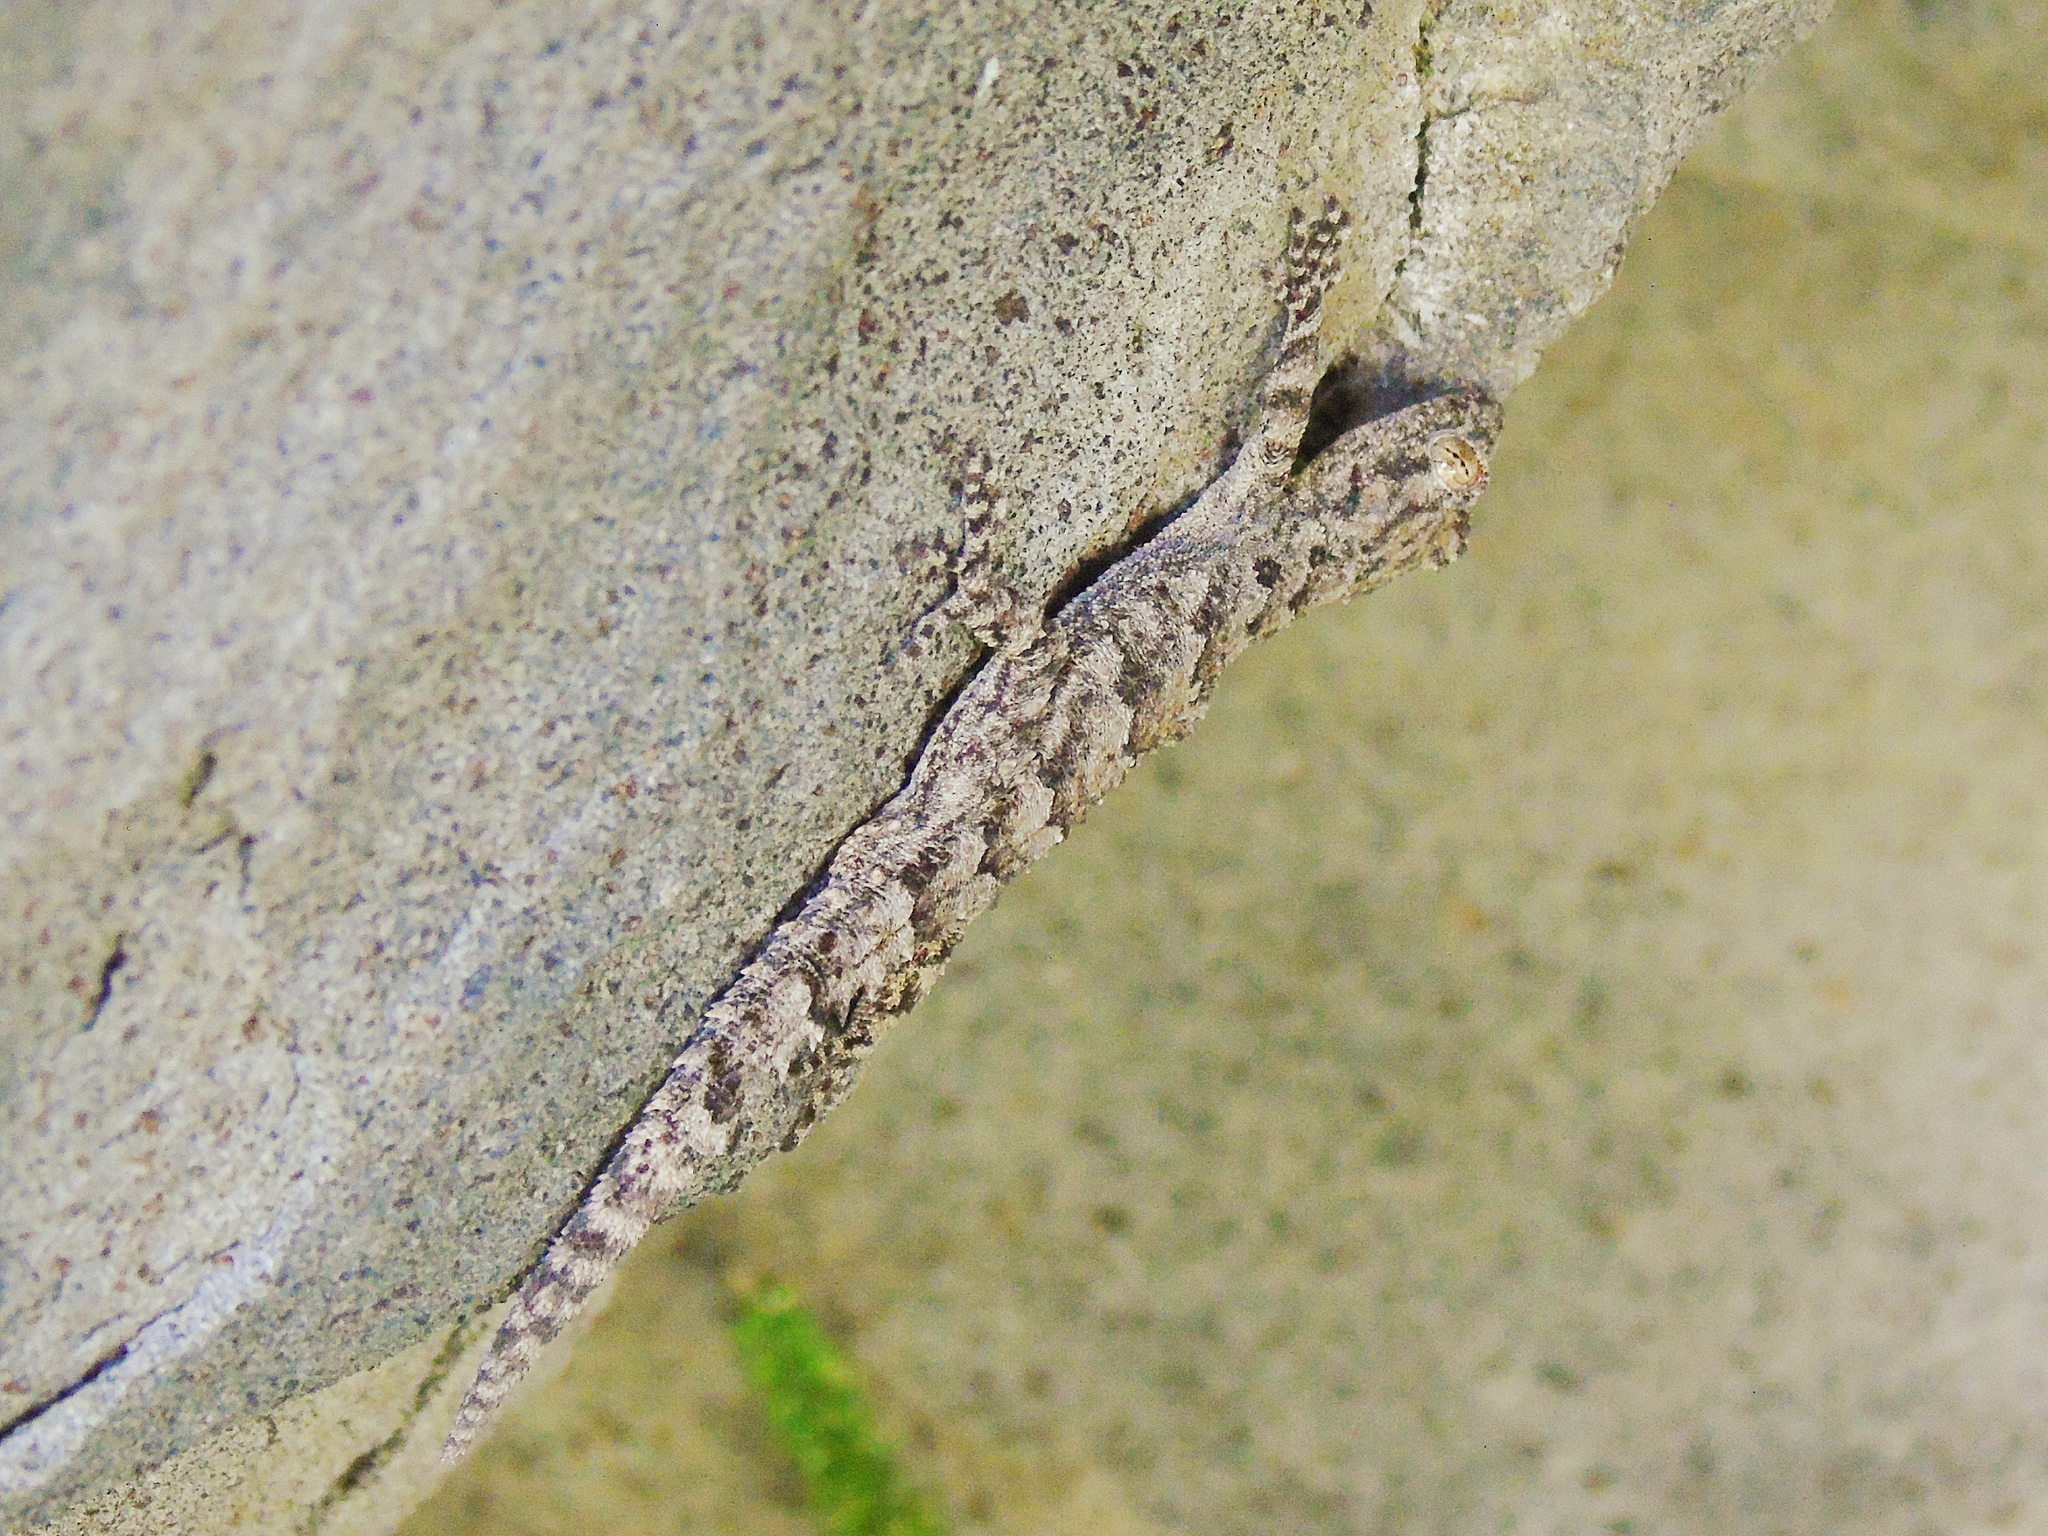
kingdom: Animalia
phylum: Chordata
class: Squamata
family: Gekkonidae
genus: Mediodactylus
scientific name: Mediodactylus heterocercus
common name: Asia minor thin-toed gecko
